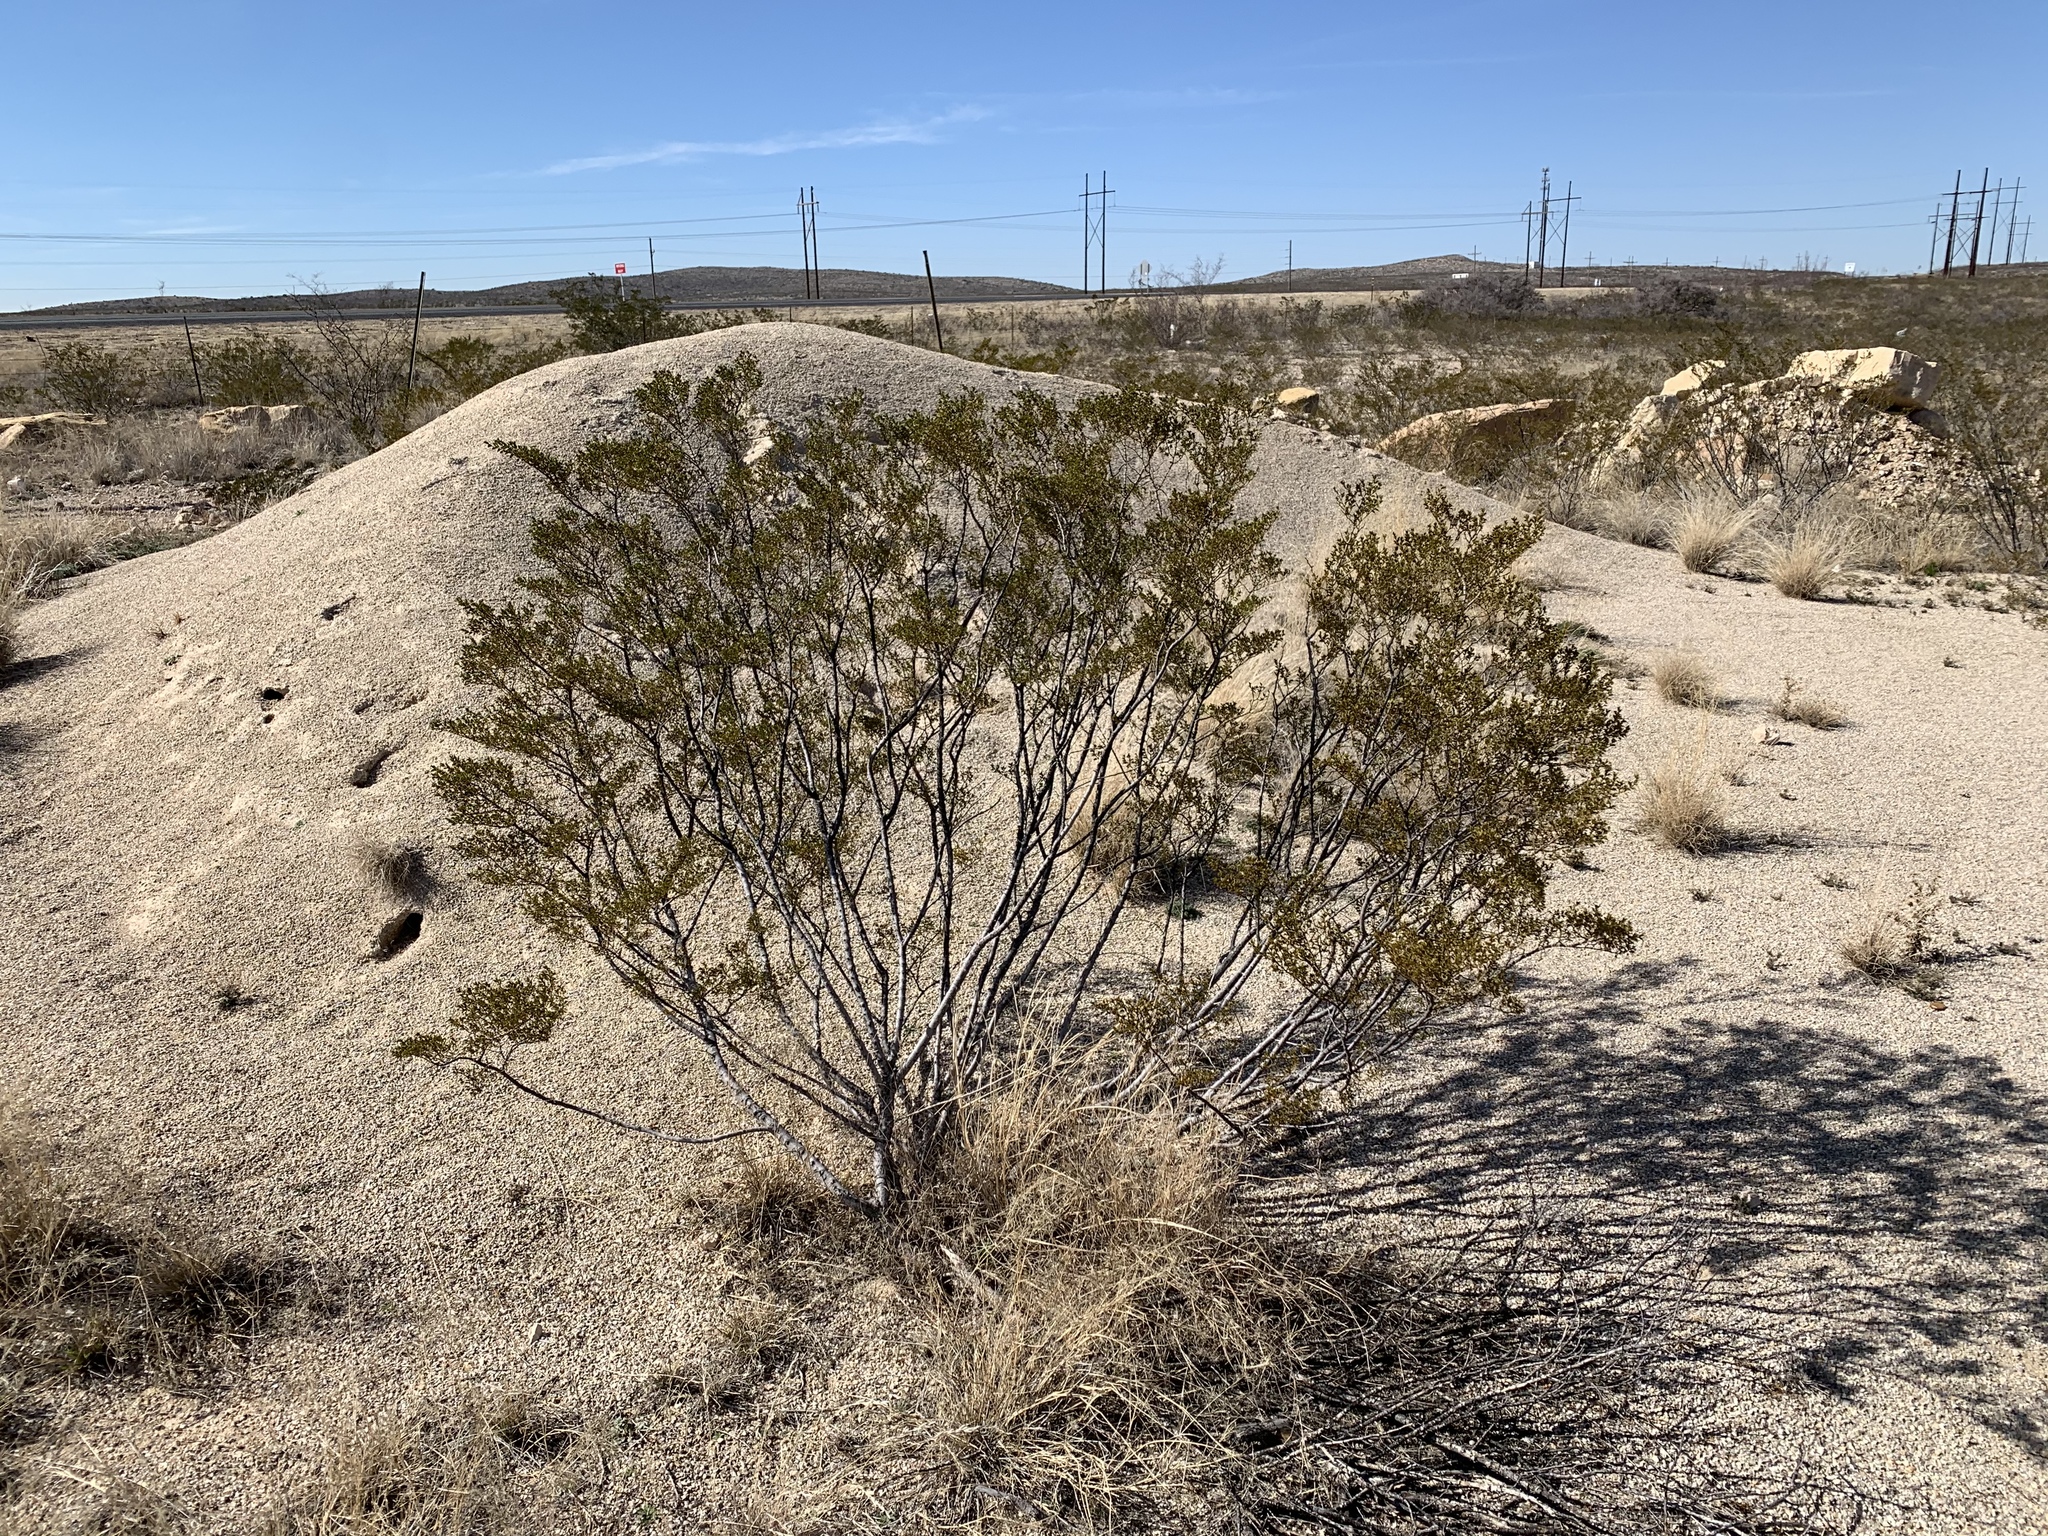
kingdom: Plantae
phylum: Tracheophyta
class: Magnoliopsida
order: Zygophyllales
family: Zygophyllaceae
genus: Larrea
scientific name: Larrea tridentata
